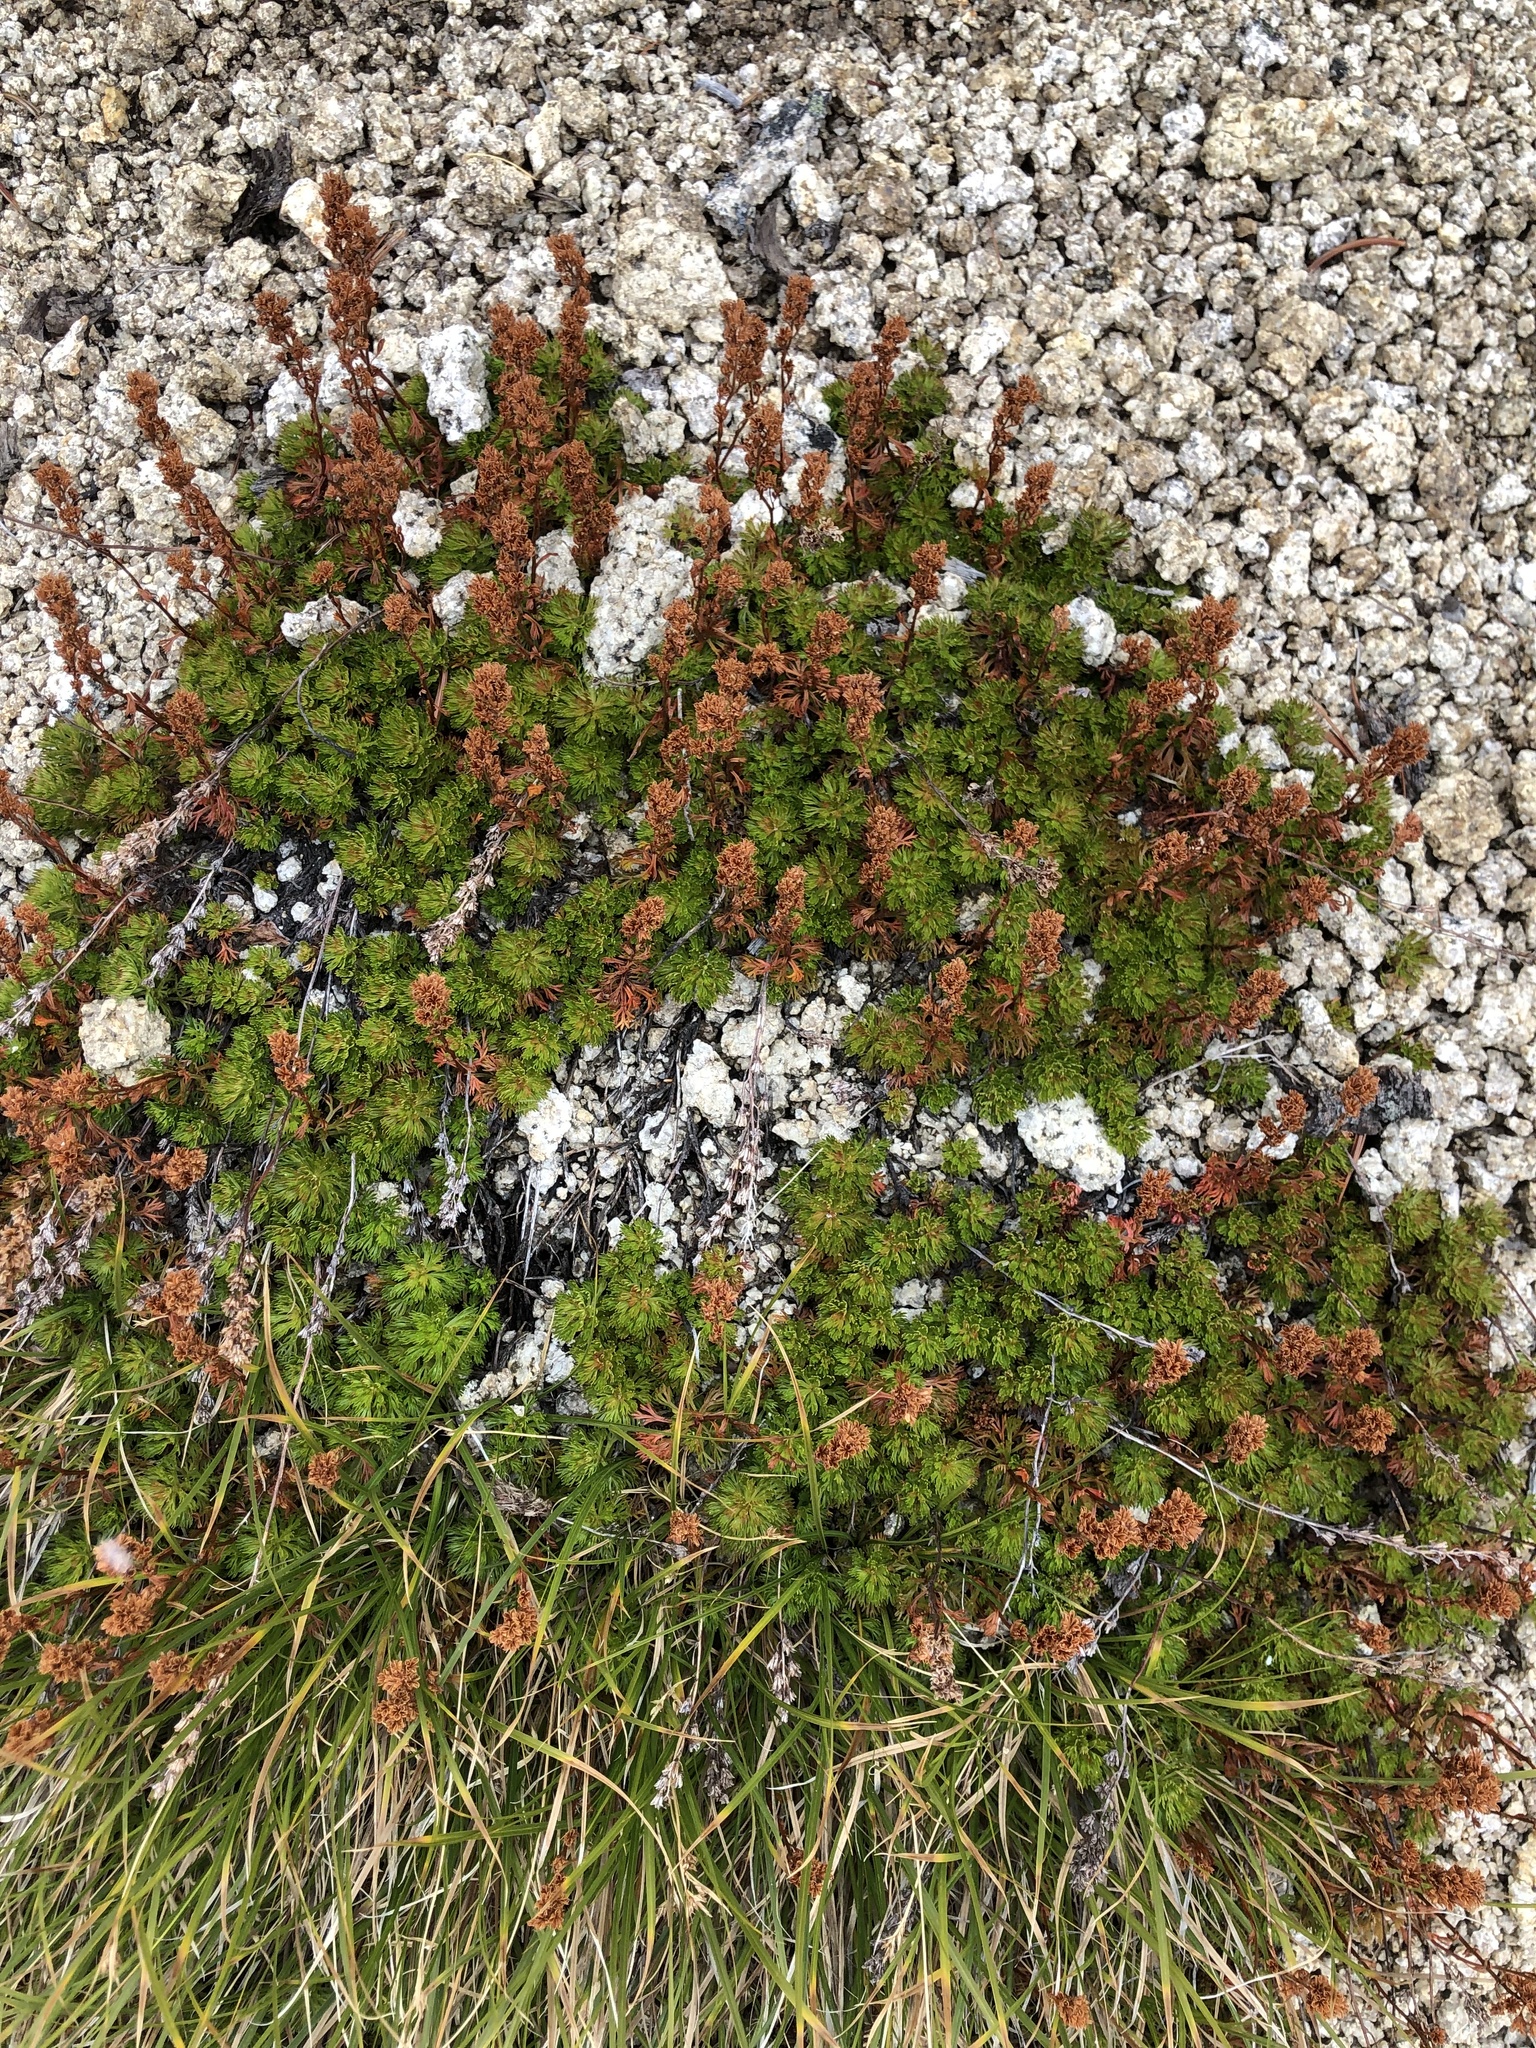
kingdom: Plantae
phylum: Tracheophyta
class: Magnoliopsida
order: Rosales
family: Rosaceae
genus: Luetkea
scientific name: Luetkea pectinata
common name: Partridgefoot
